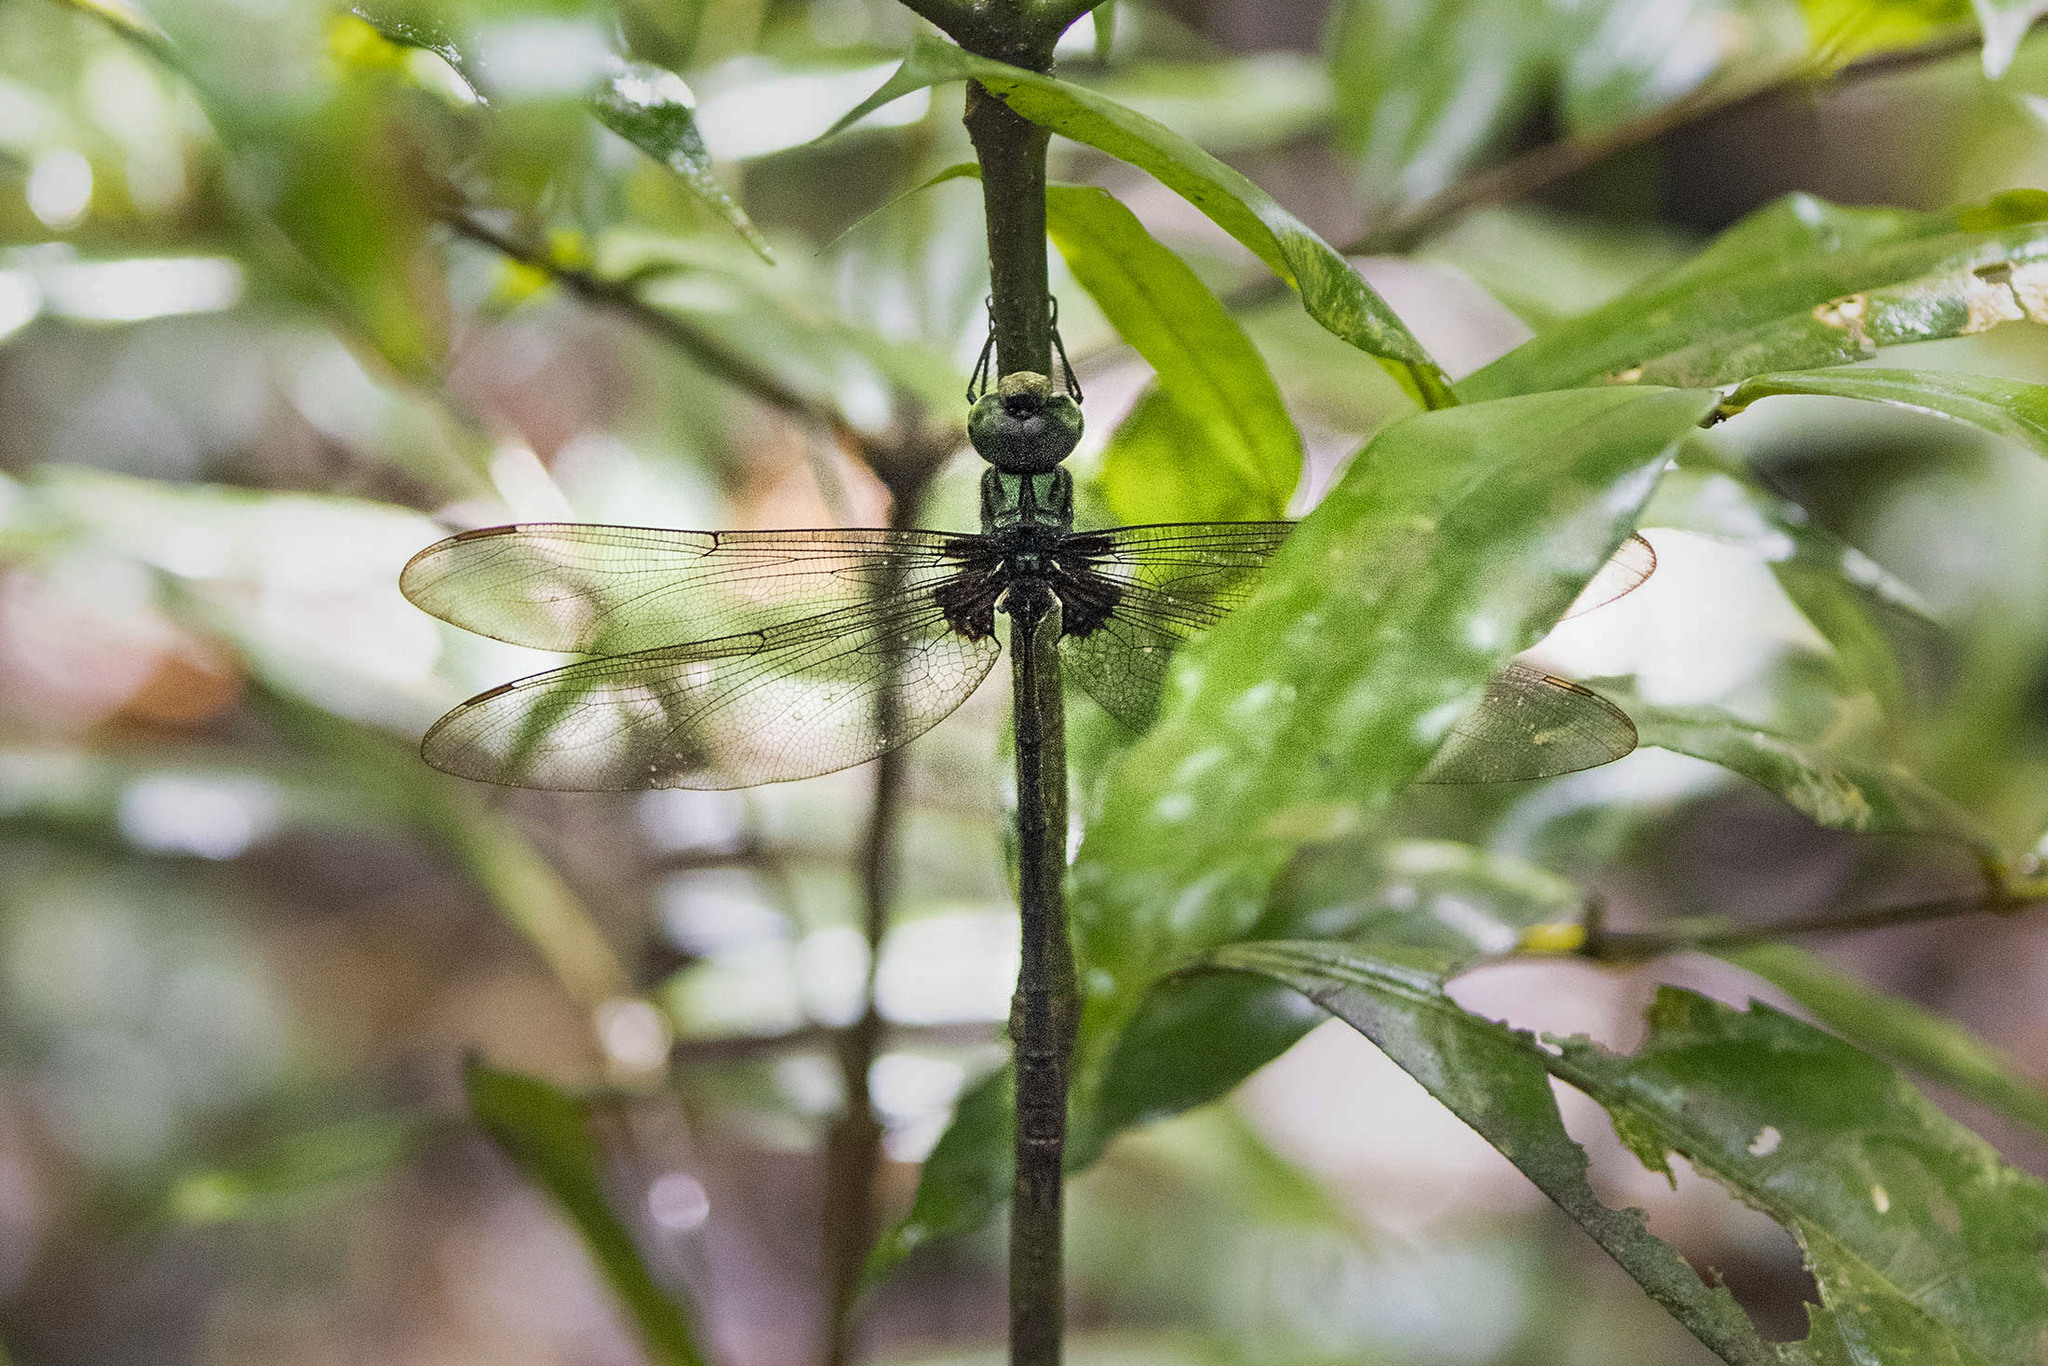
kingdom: Animalia
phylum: Arthropoda
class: Insecta
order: Odonata
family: Aeshnidae
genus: Gynacantha
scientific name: Gynacantha membranalis
